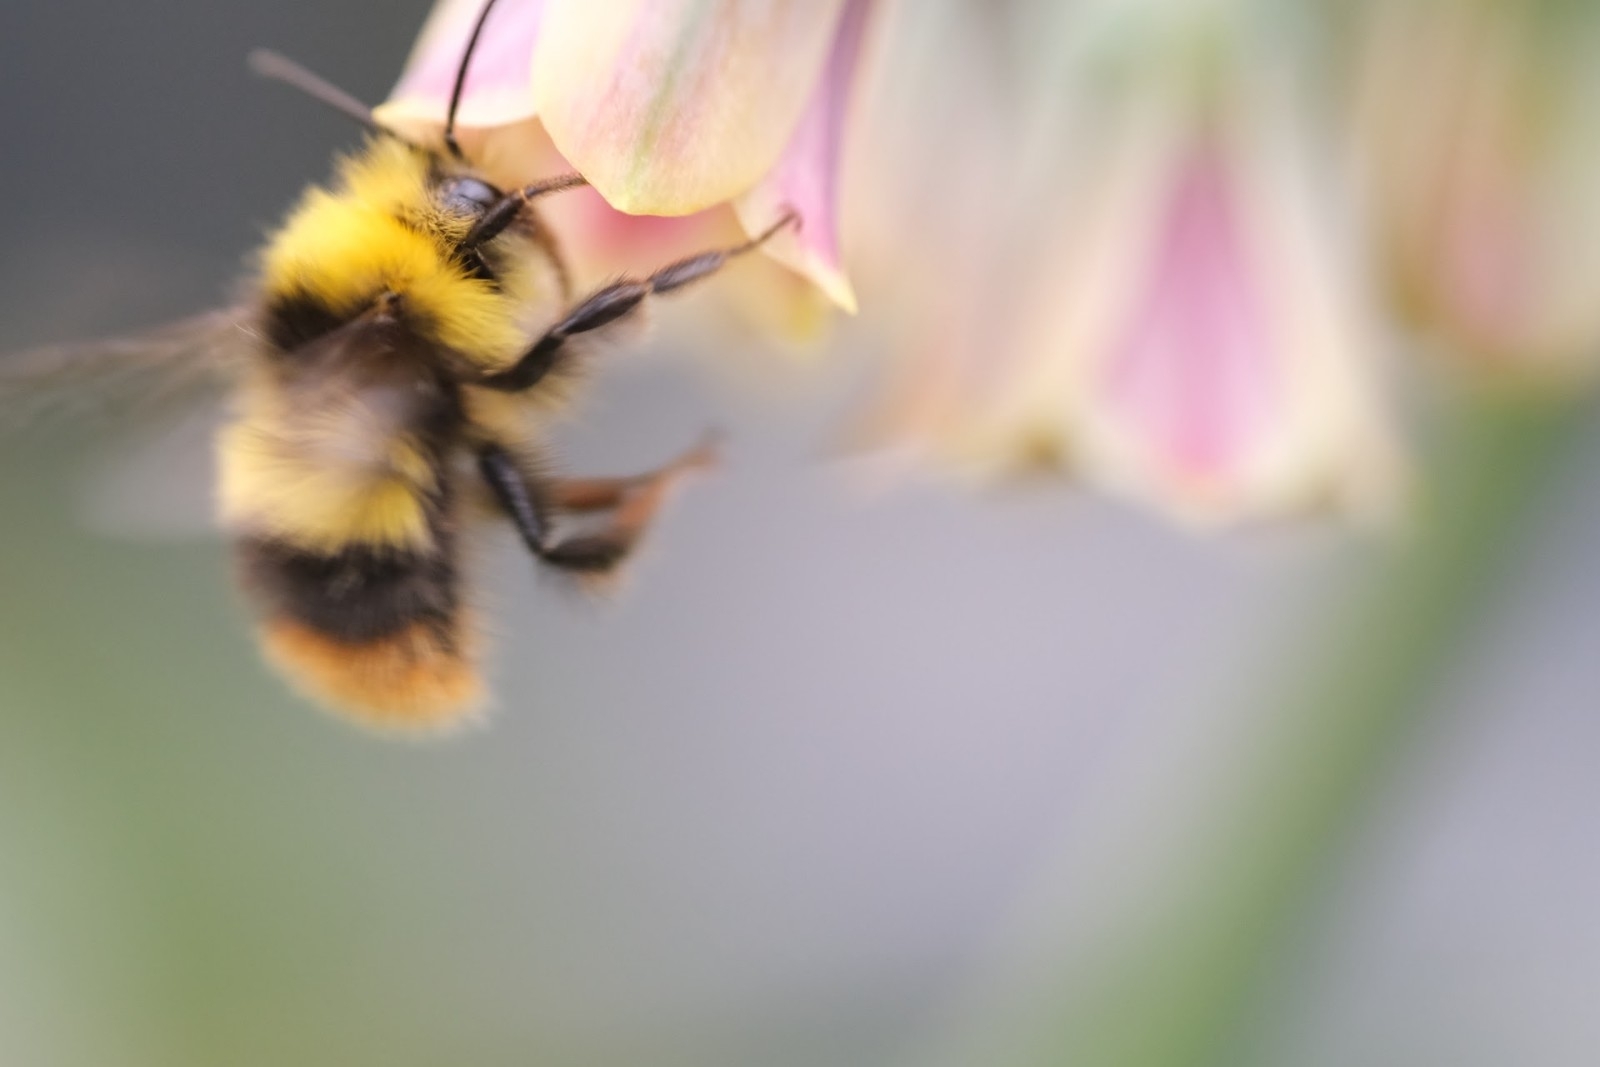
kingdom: Animalia
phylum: Arthropoda
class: Insecta
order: Hymenoptera
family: Apidae
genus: Bombus
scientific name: Bombus pratorum
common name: Early humble-bee
